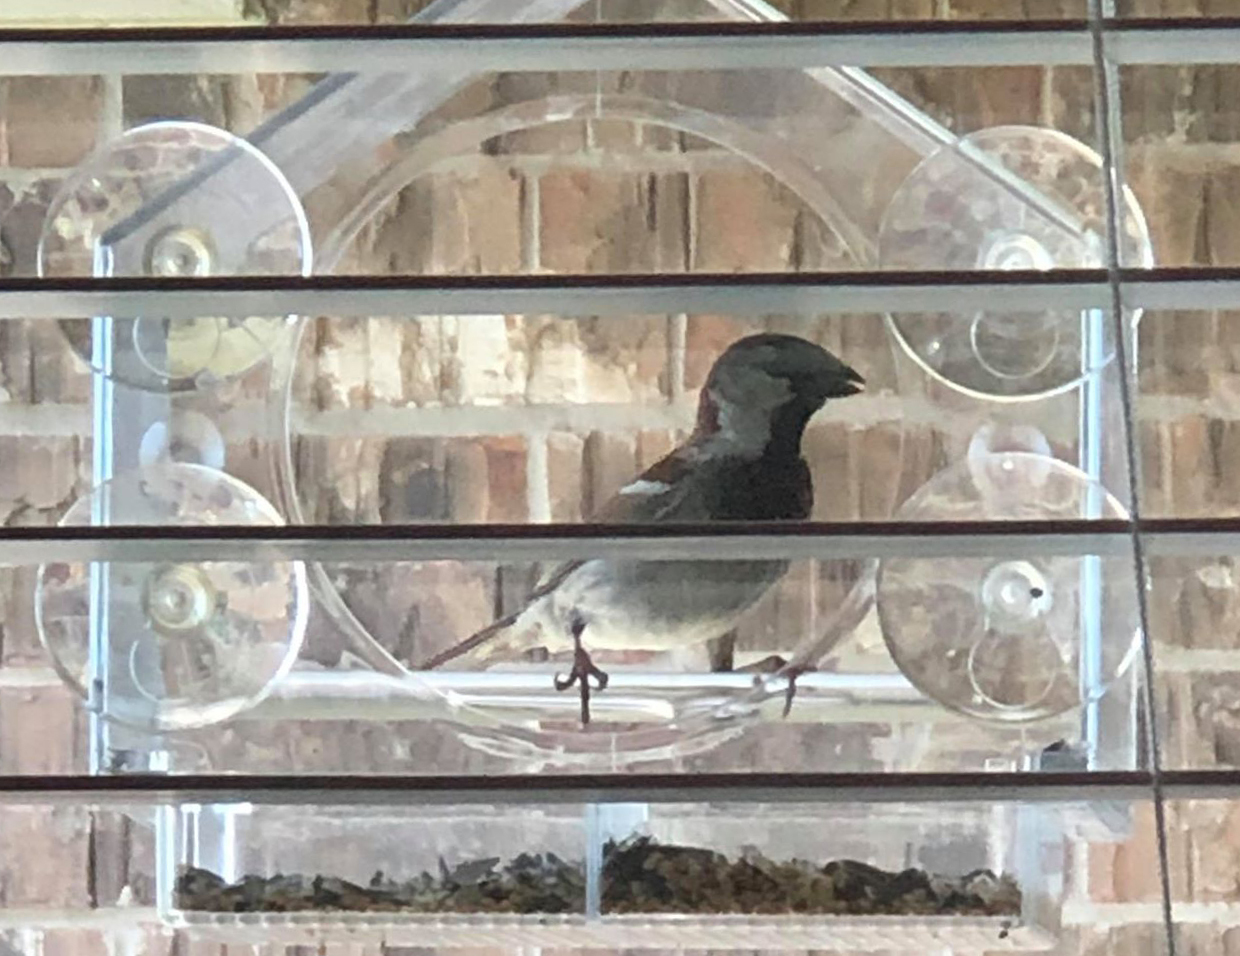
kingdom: Animalia
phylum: Chordata
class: Aves
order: Passeriformes
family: Passeridae
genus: Passer
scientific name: Passer domesticus
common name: House sparrow
